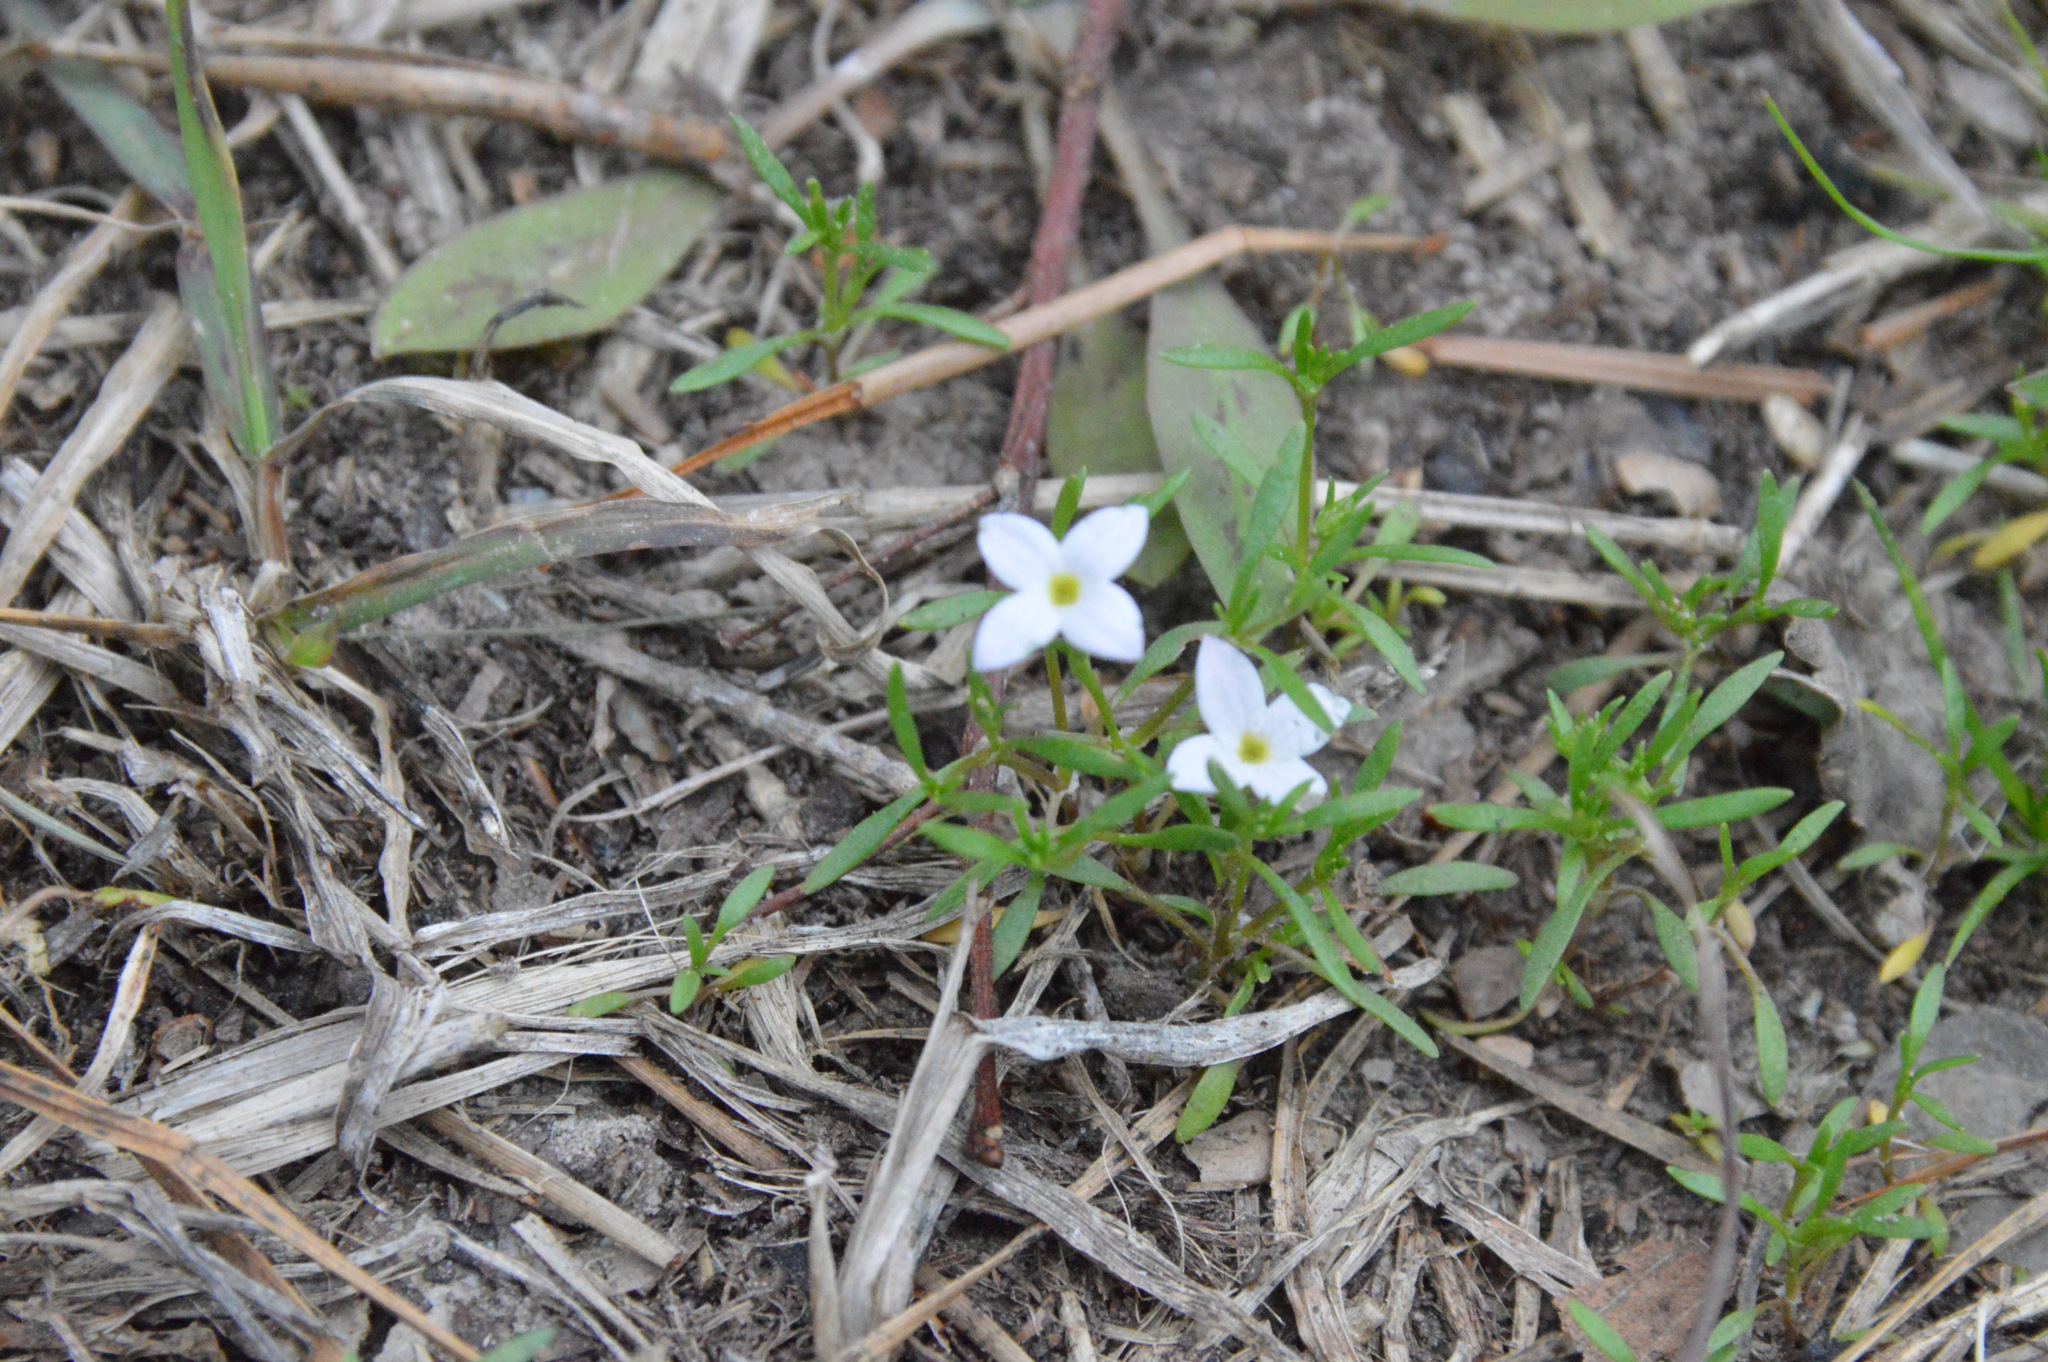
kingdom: Plantae
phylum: Tracheophyta
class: Magnoliopsida
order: Gentianales
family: Rubiaceae
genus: Houstonia
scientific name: Houstonia rosea
